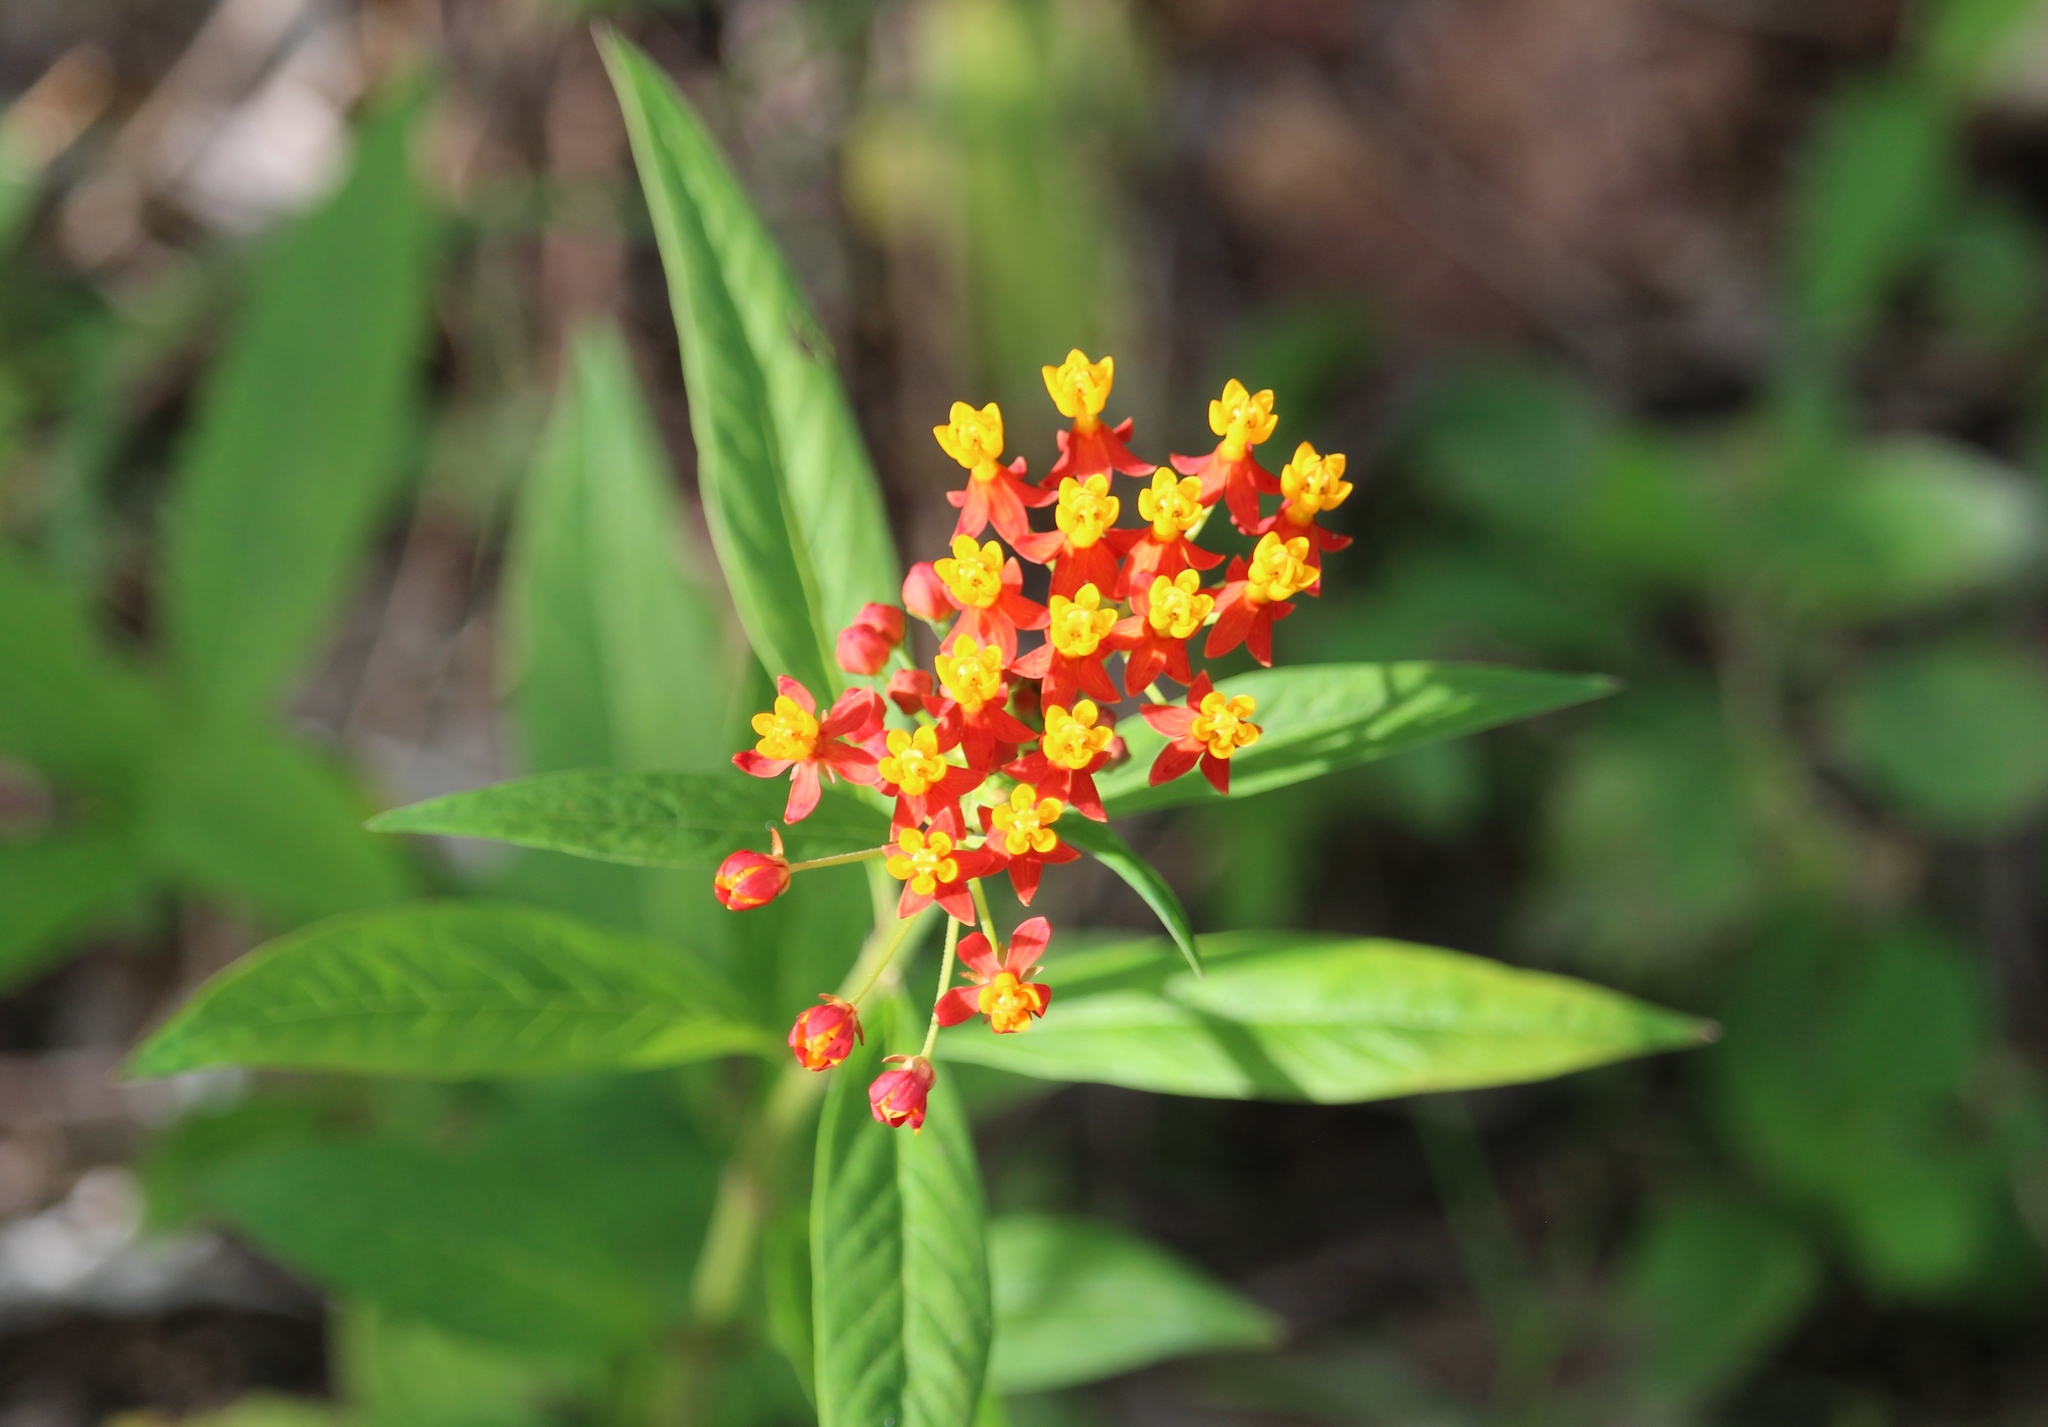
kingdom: Plantae
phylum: Tracheophyta
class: Magnoliopsida
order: Gentianales
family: Apocynaceae
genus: Asclepias
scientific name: Asclepias curassavica
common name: Bloodflower
